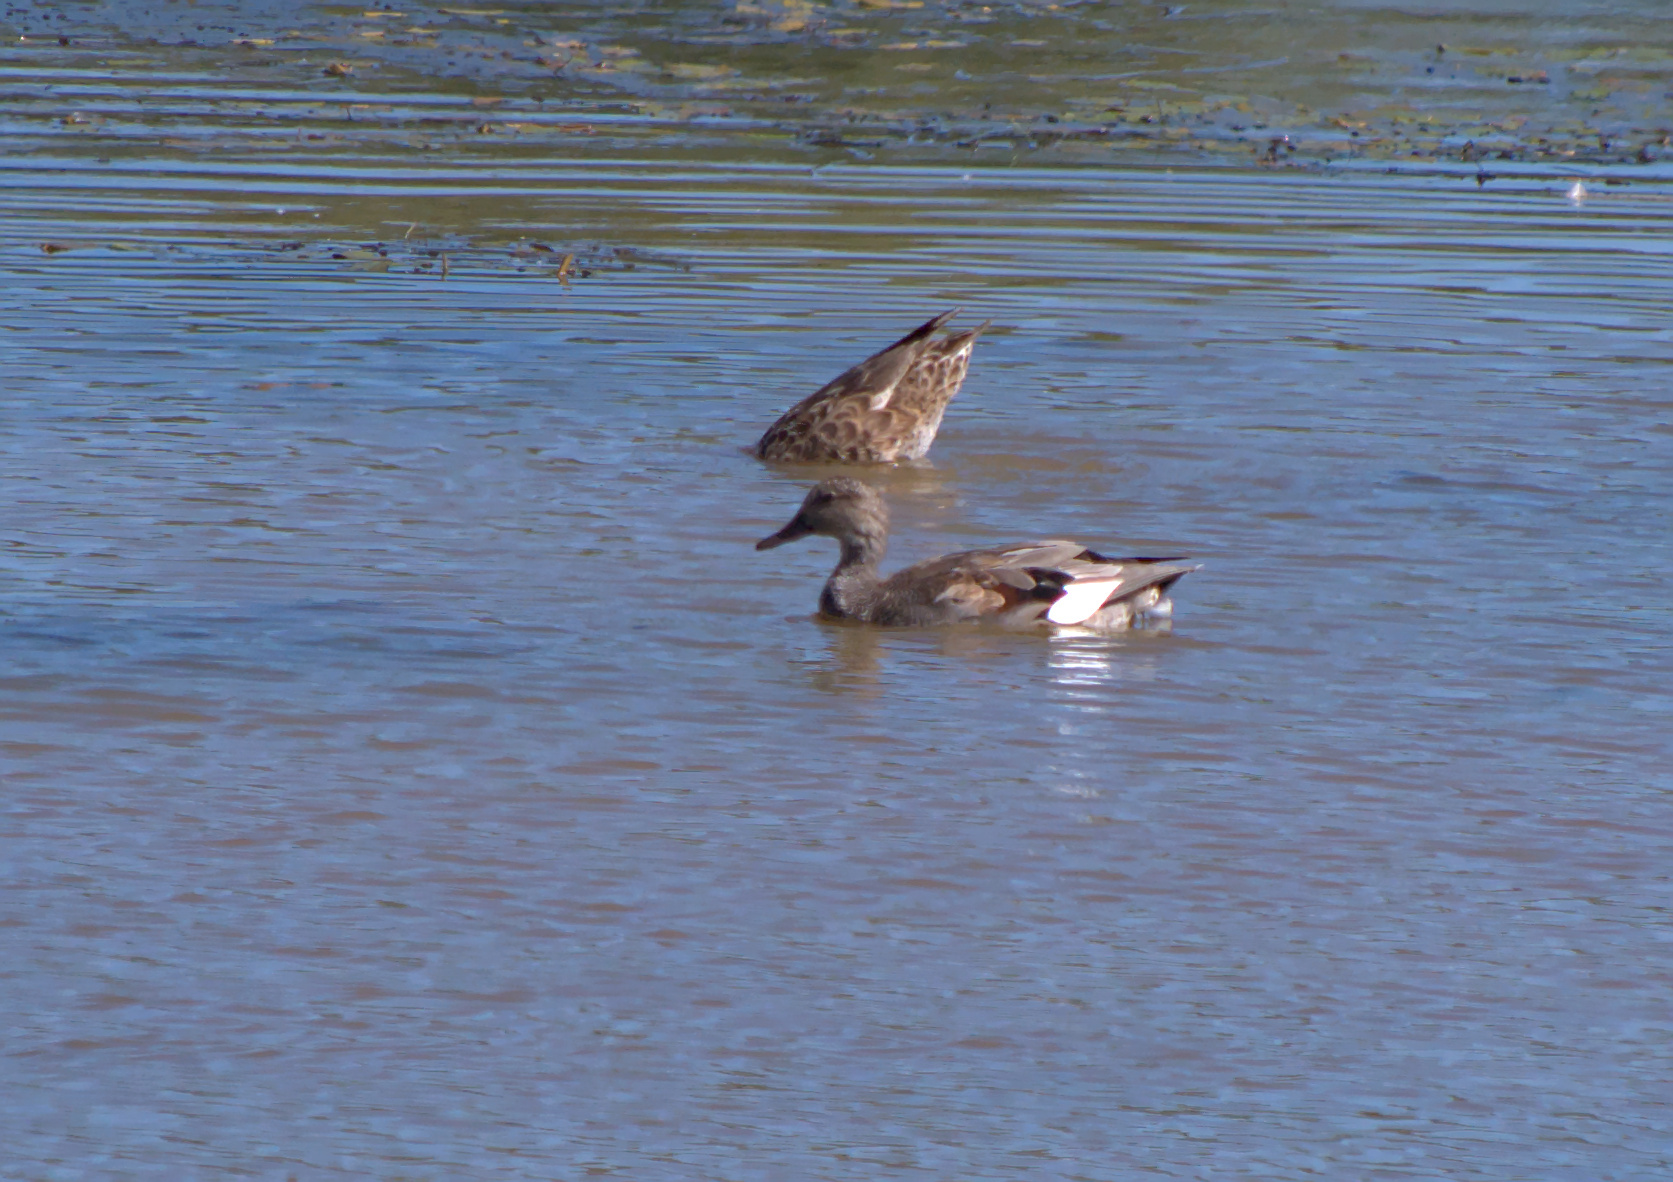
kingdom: Animalia
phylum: Chordata
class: Aves
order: Anseriformes
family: Anatidae
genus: Mareca
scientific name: Mareca strepera
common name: Gadwall
